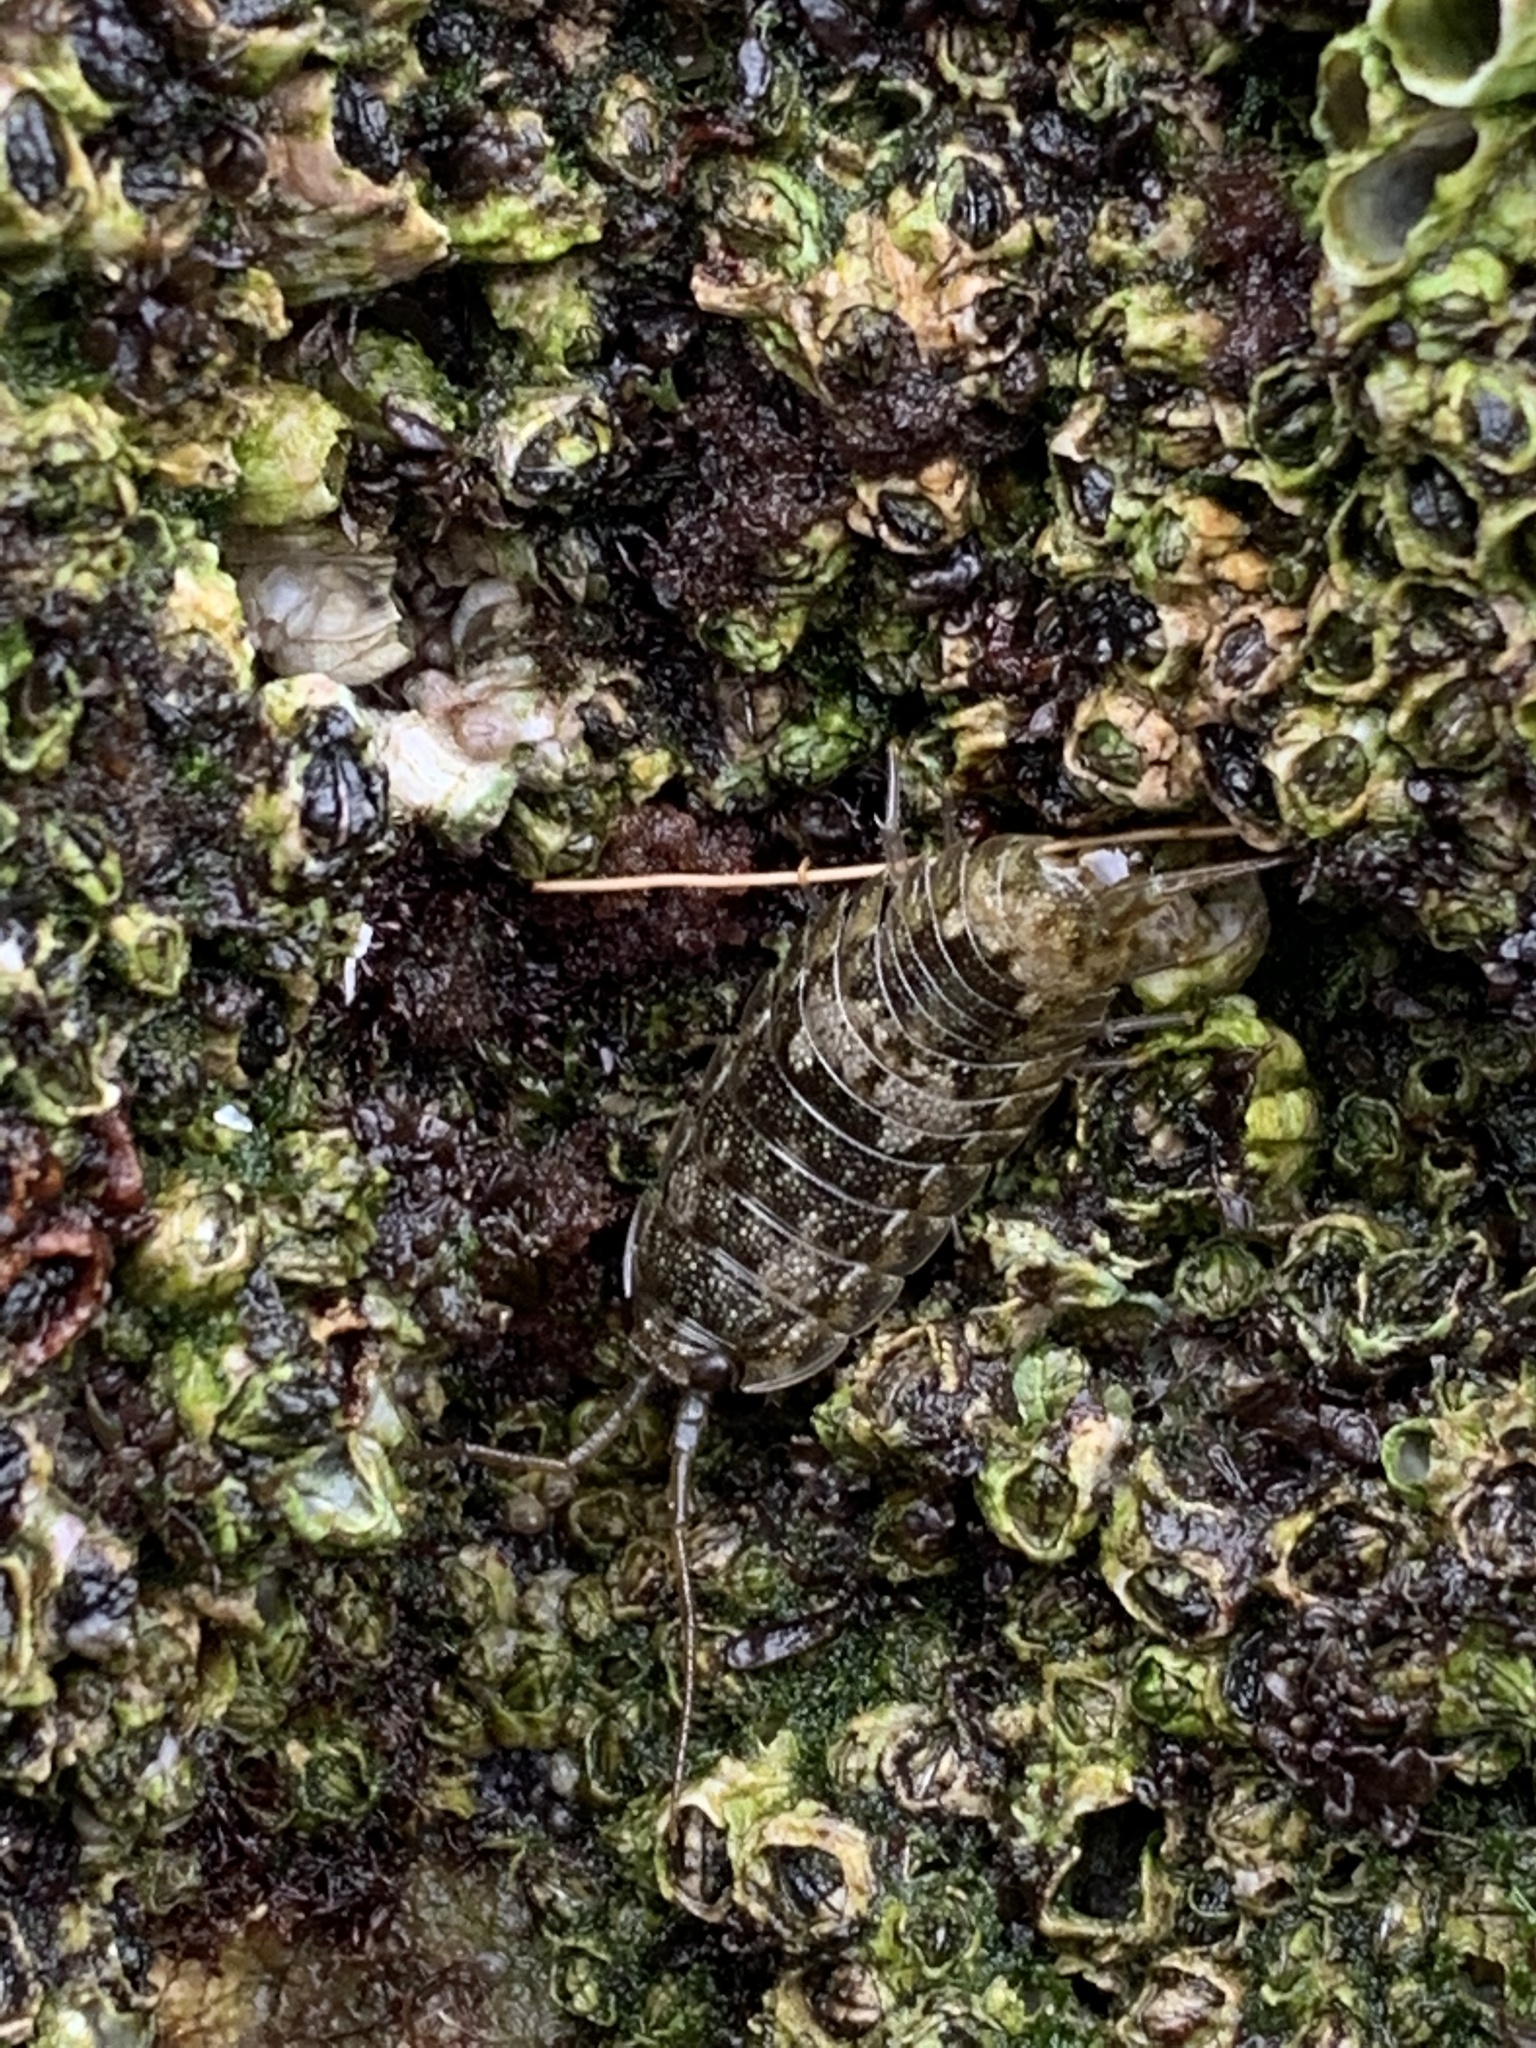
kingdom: Animalia
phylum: Arthropoda
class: Malacostraca
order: Isopoda
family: Ligiidae
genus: Ligia
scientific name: Ligia oceanica
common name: Sea slater
